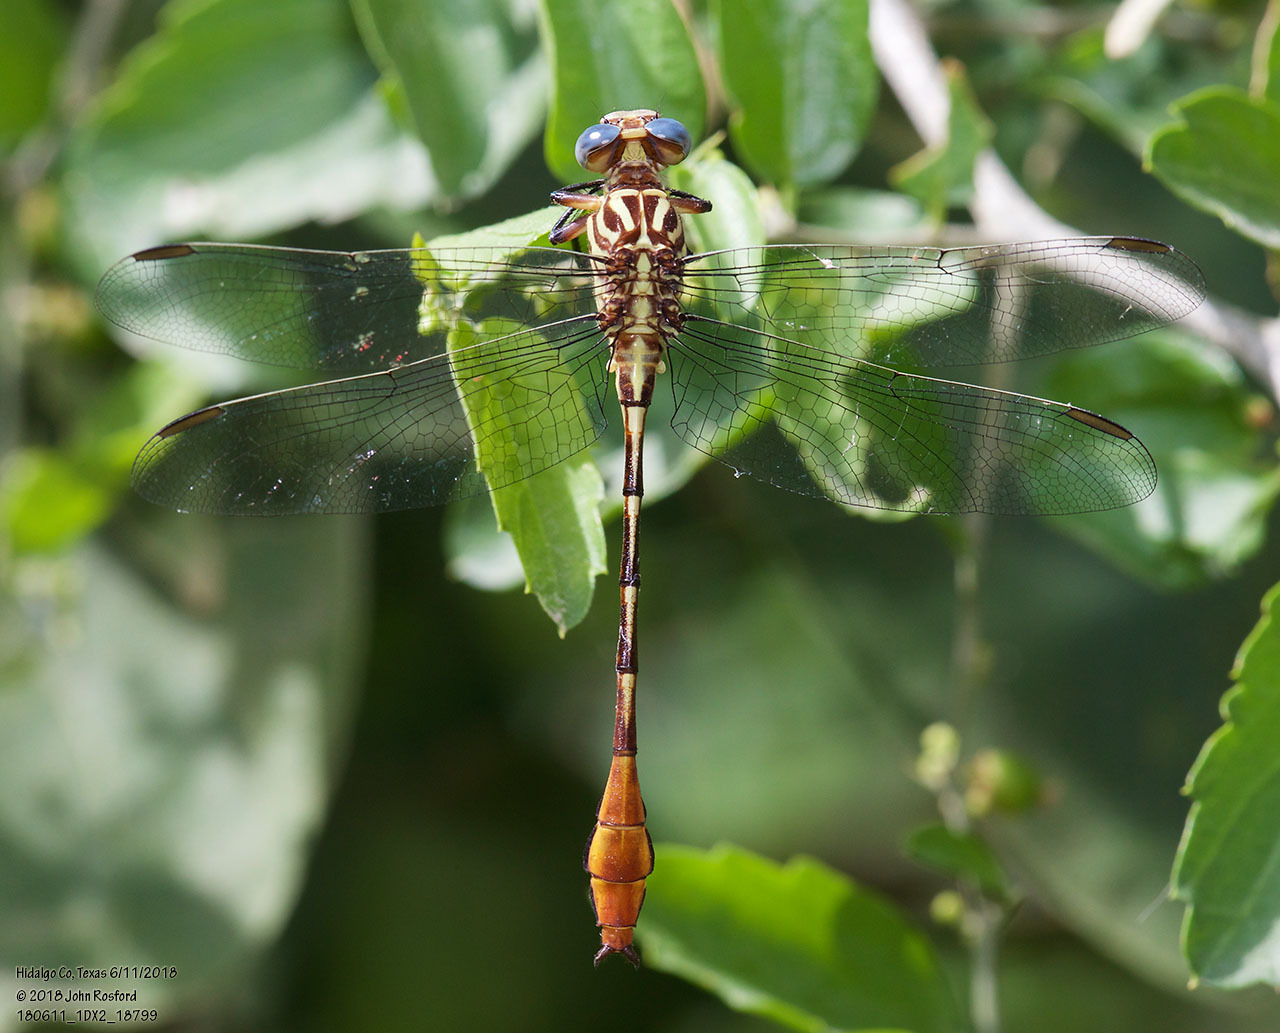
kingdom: Animalia
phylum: Arthropoda
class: Insecta
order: Odonata
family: Gomphidae
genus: Stylurus
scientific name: Stylurus plagiatus
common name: Russet-tipped clubtail
